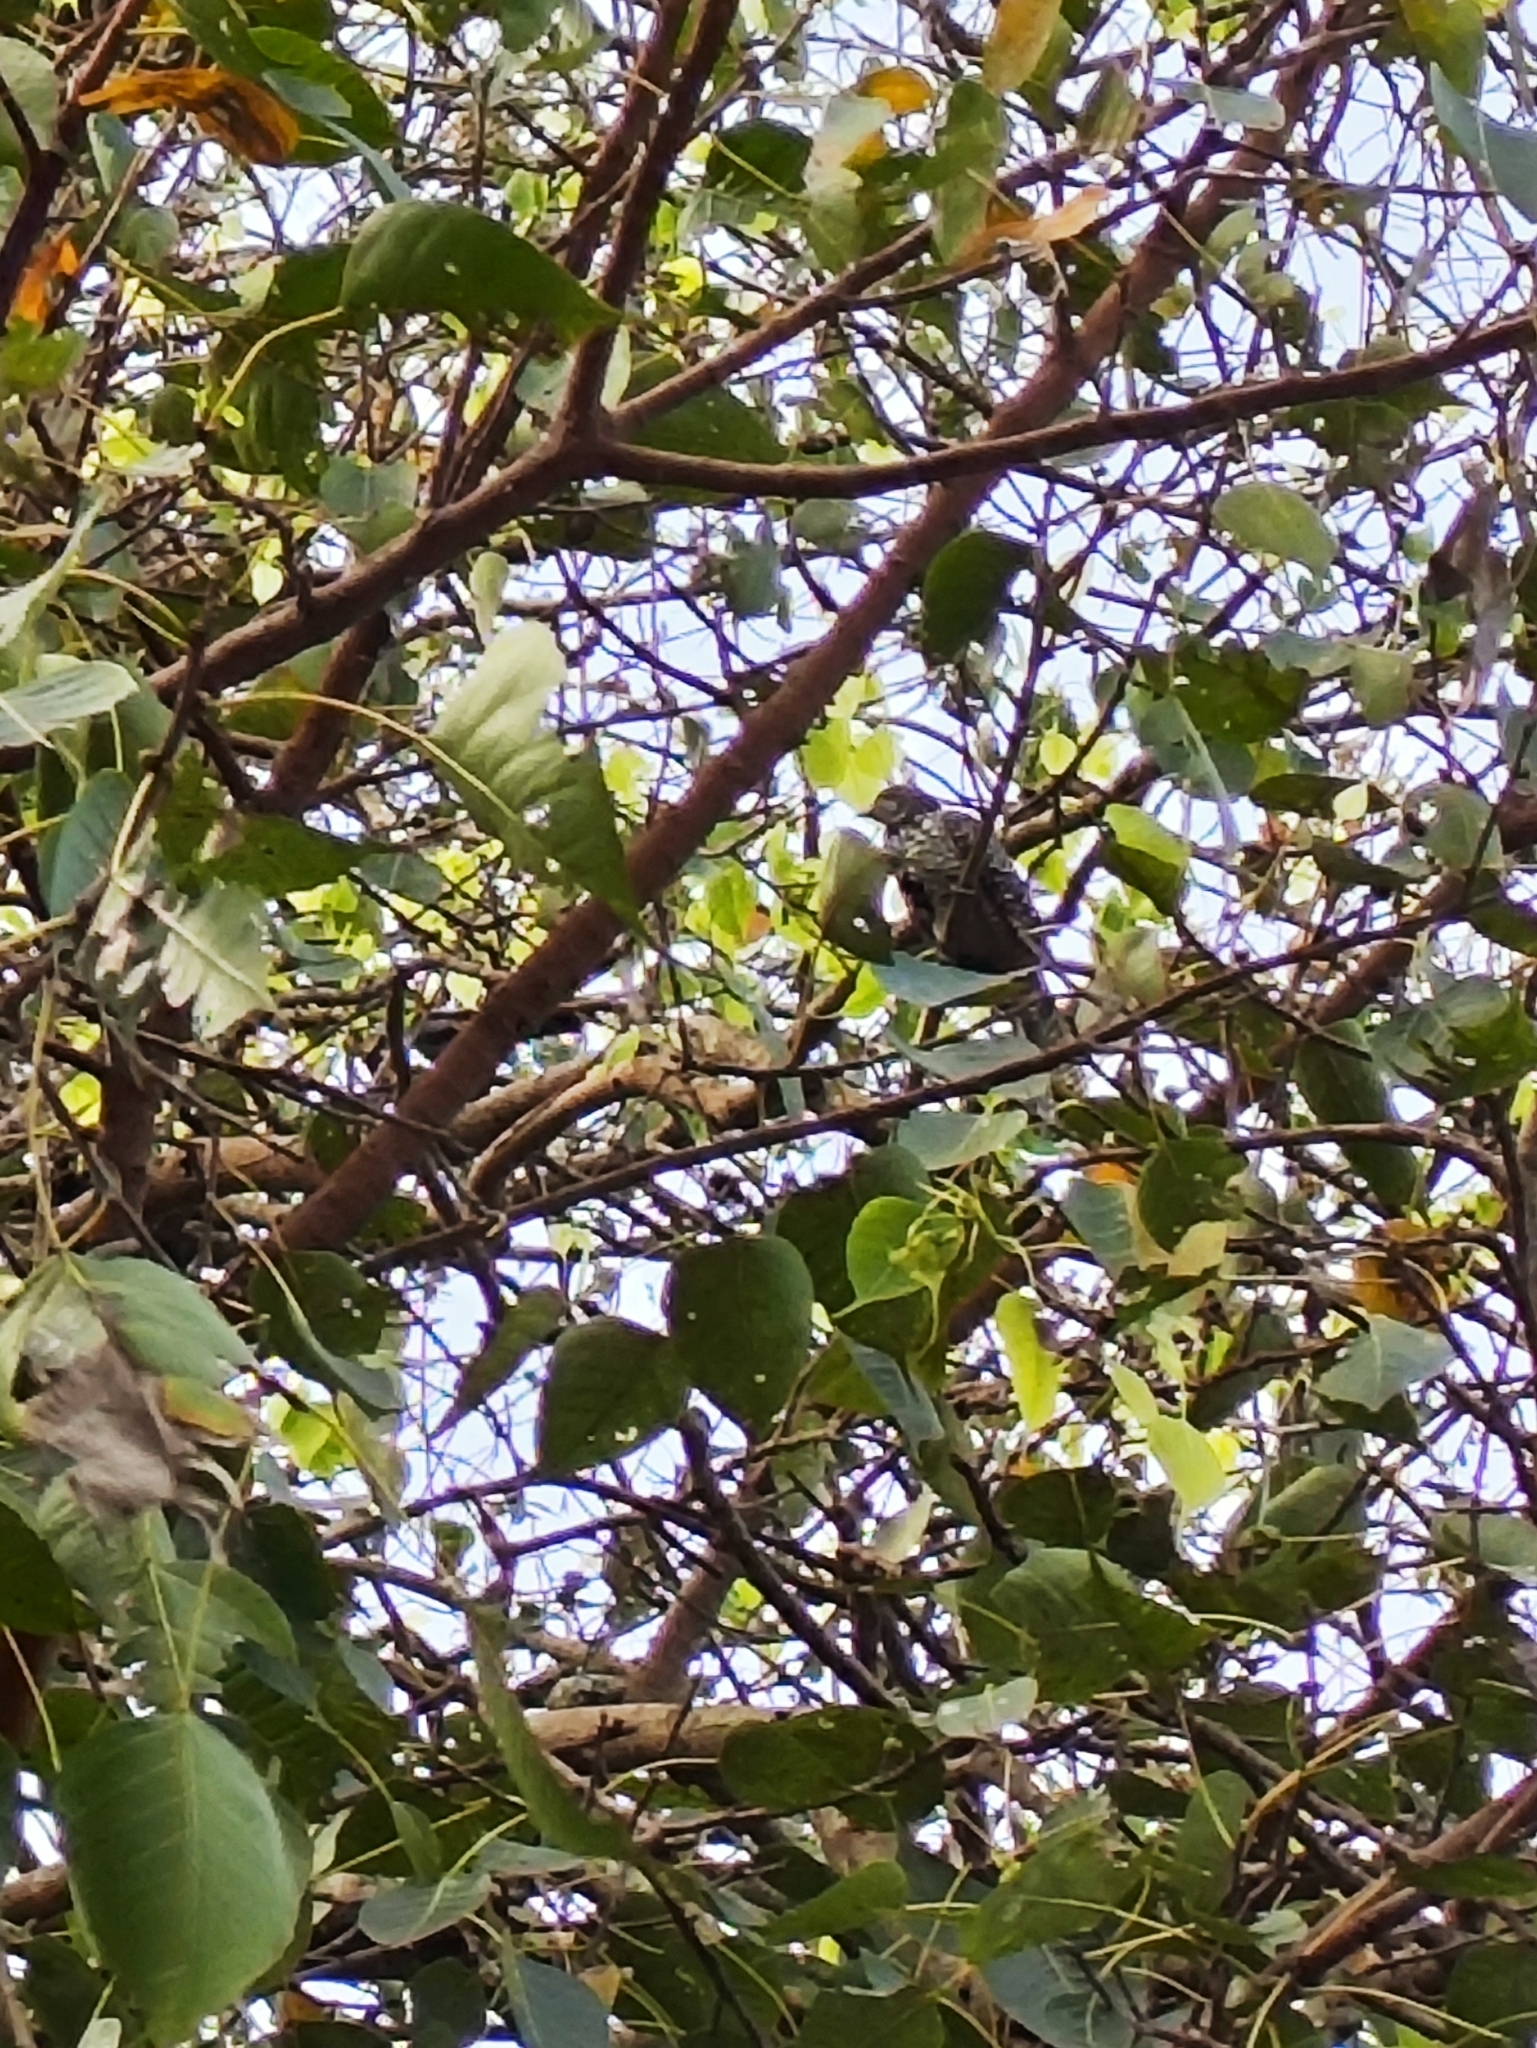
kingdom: Animalia
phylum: Chordata
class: Aves
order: Cuculiformes
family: Cuculidae
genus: Eudynamys
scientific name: Eudynamys scolopaceus
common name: Asian koel
